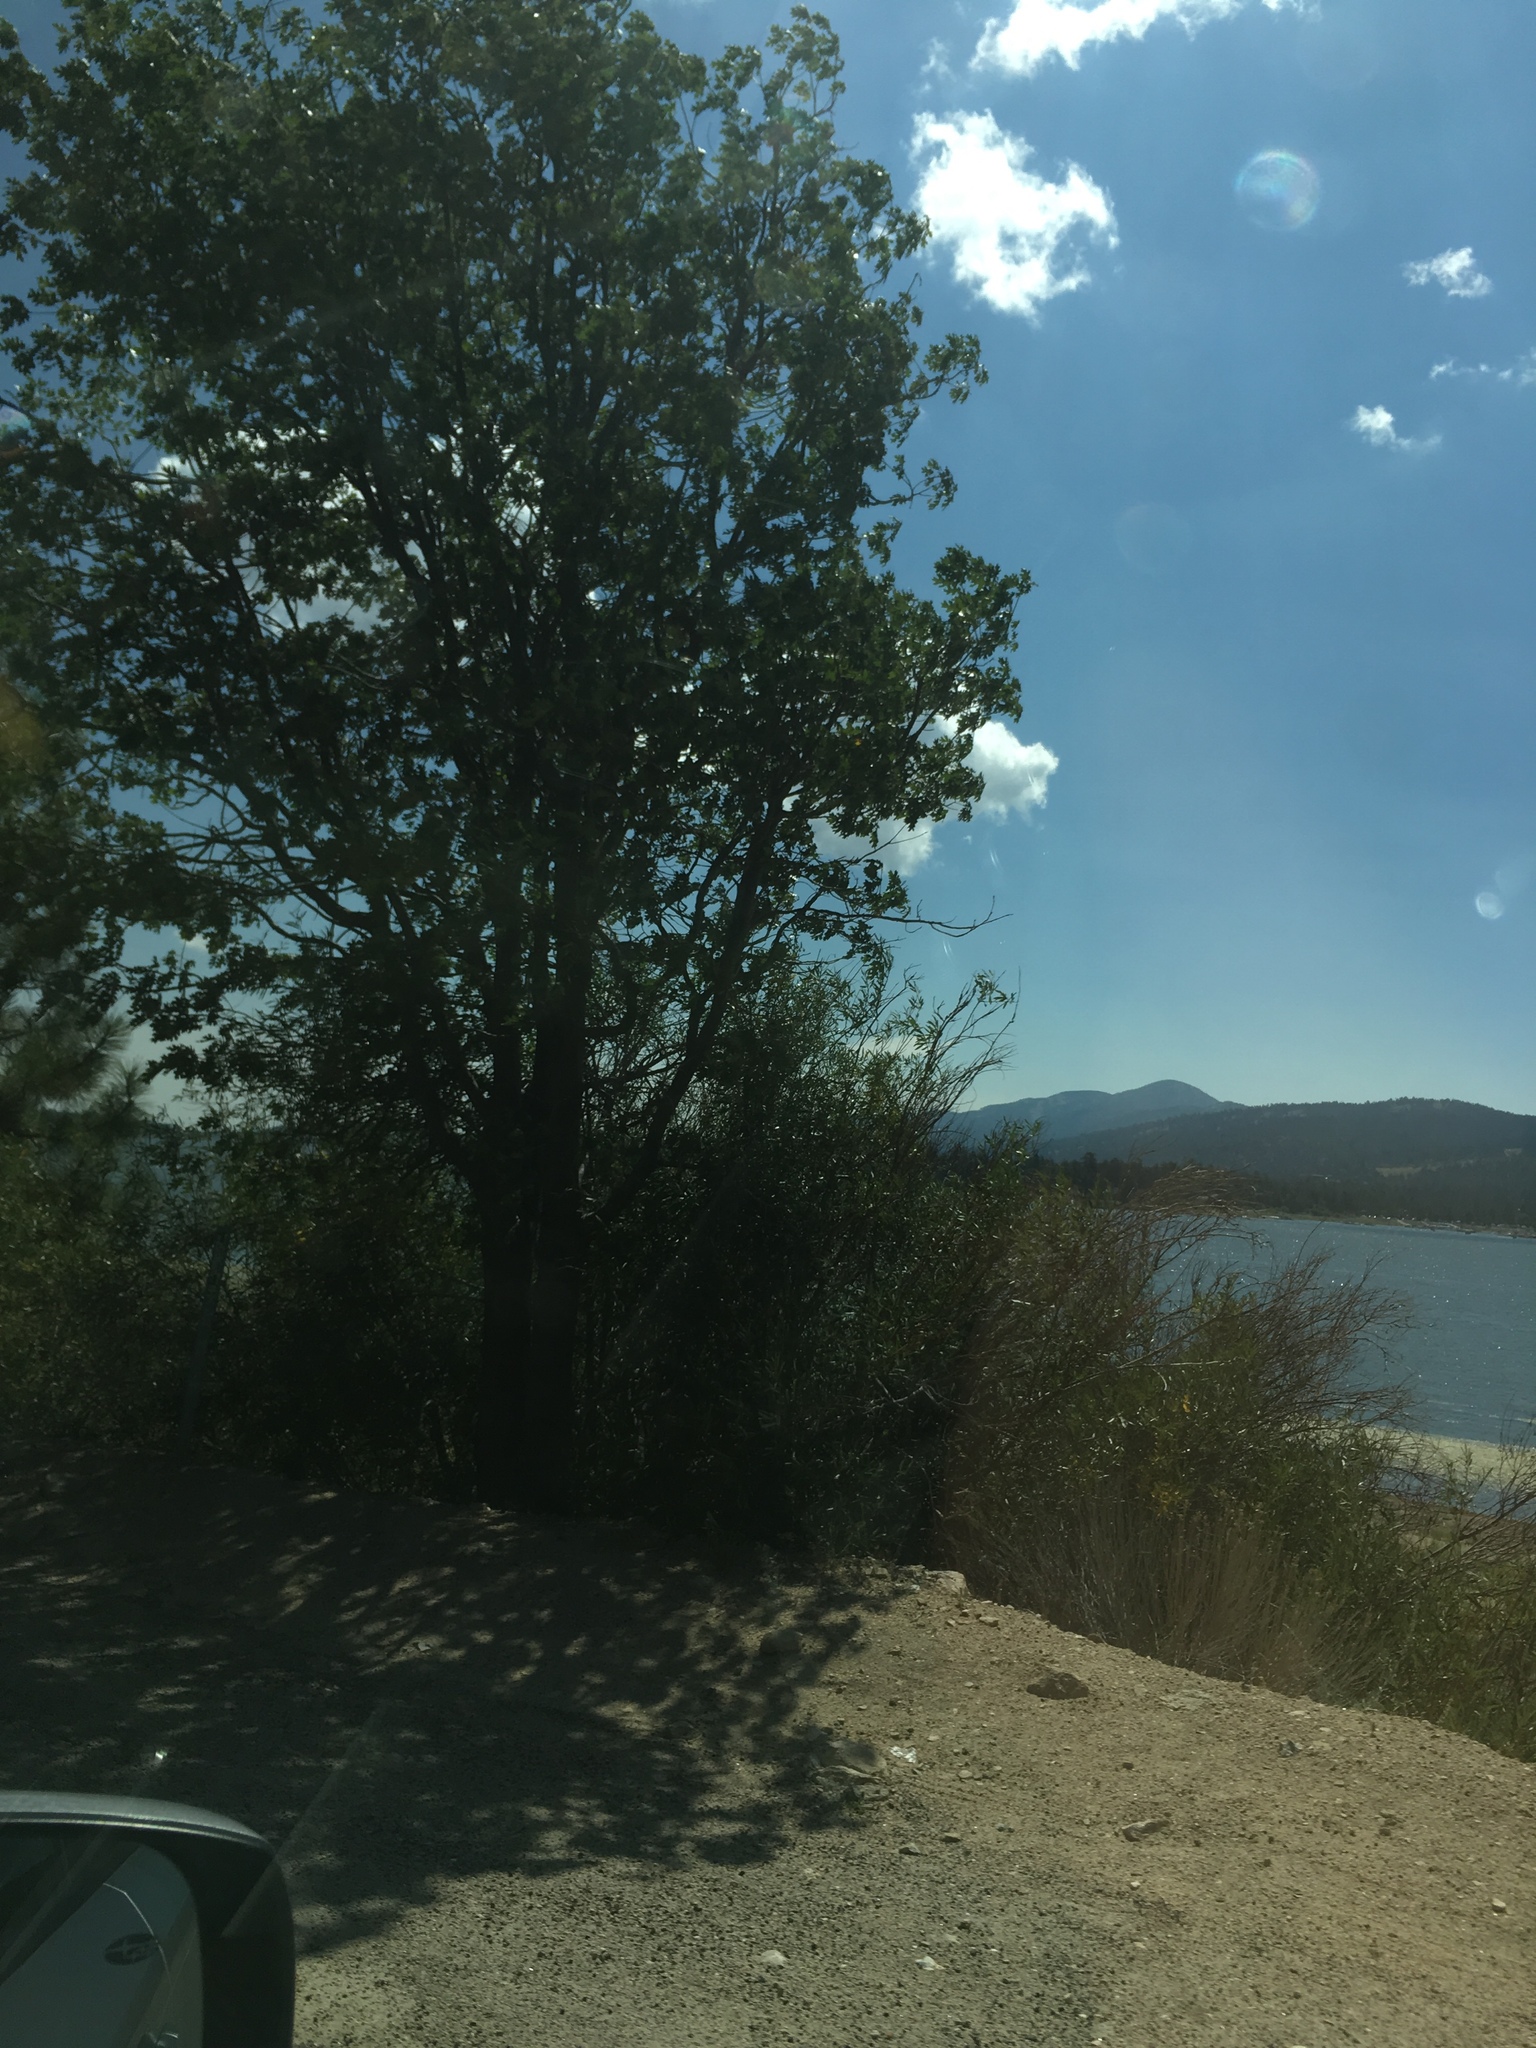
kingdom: Plantae
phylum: Tracheophyta
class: Magnoliopsida
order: Fagales
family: Fagaceae
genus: Quercus
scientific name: Quercus kelloggii
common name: California black oak
